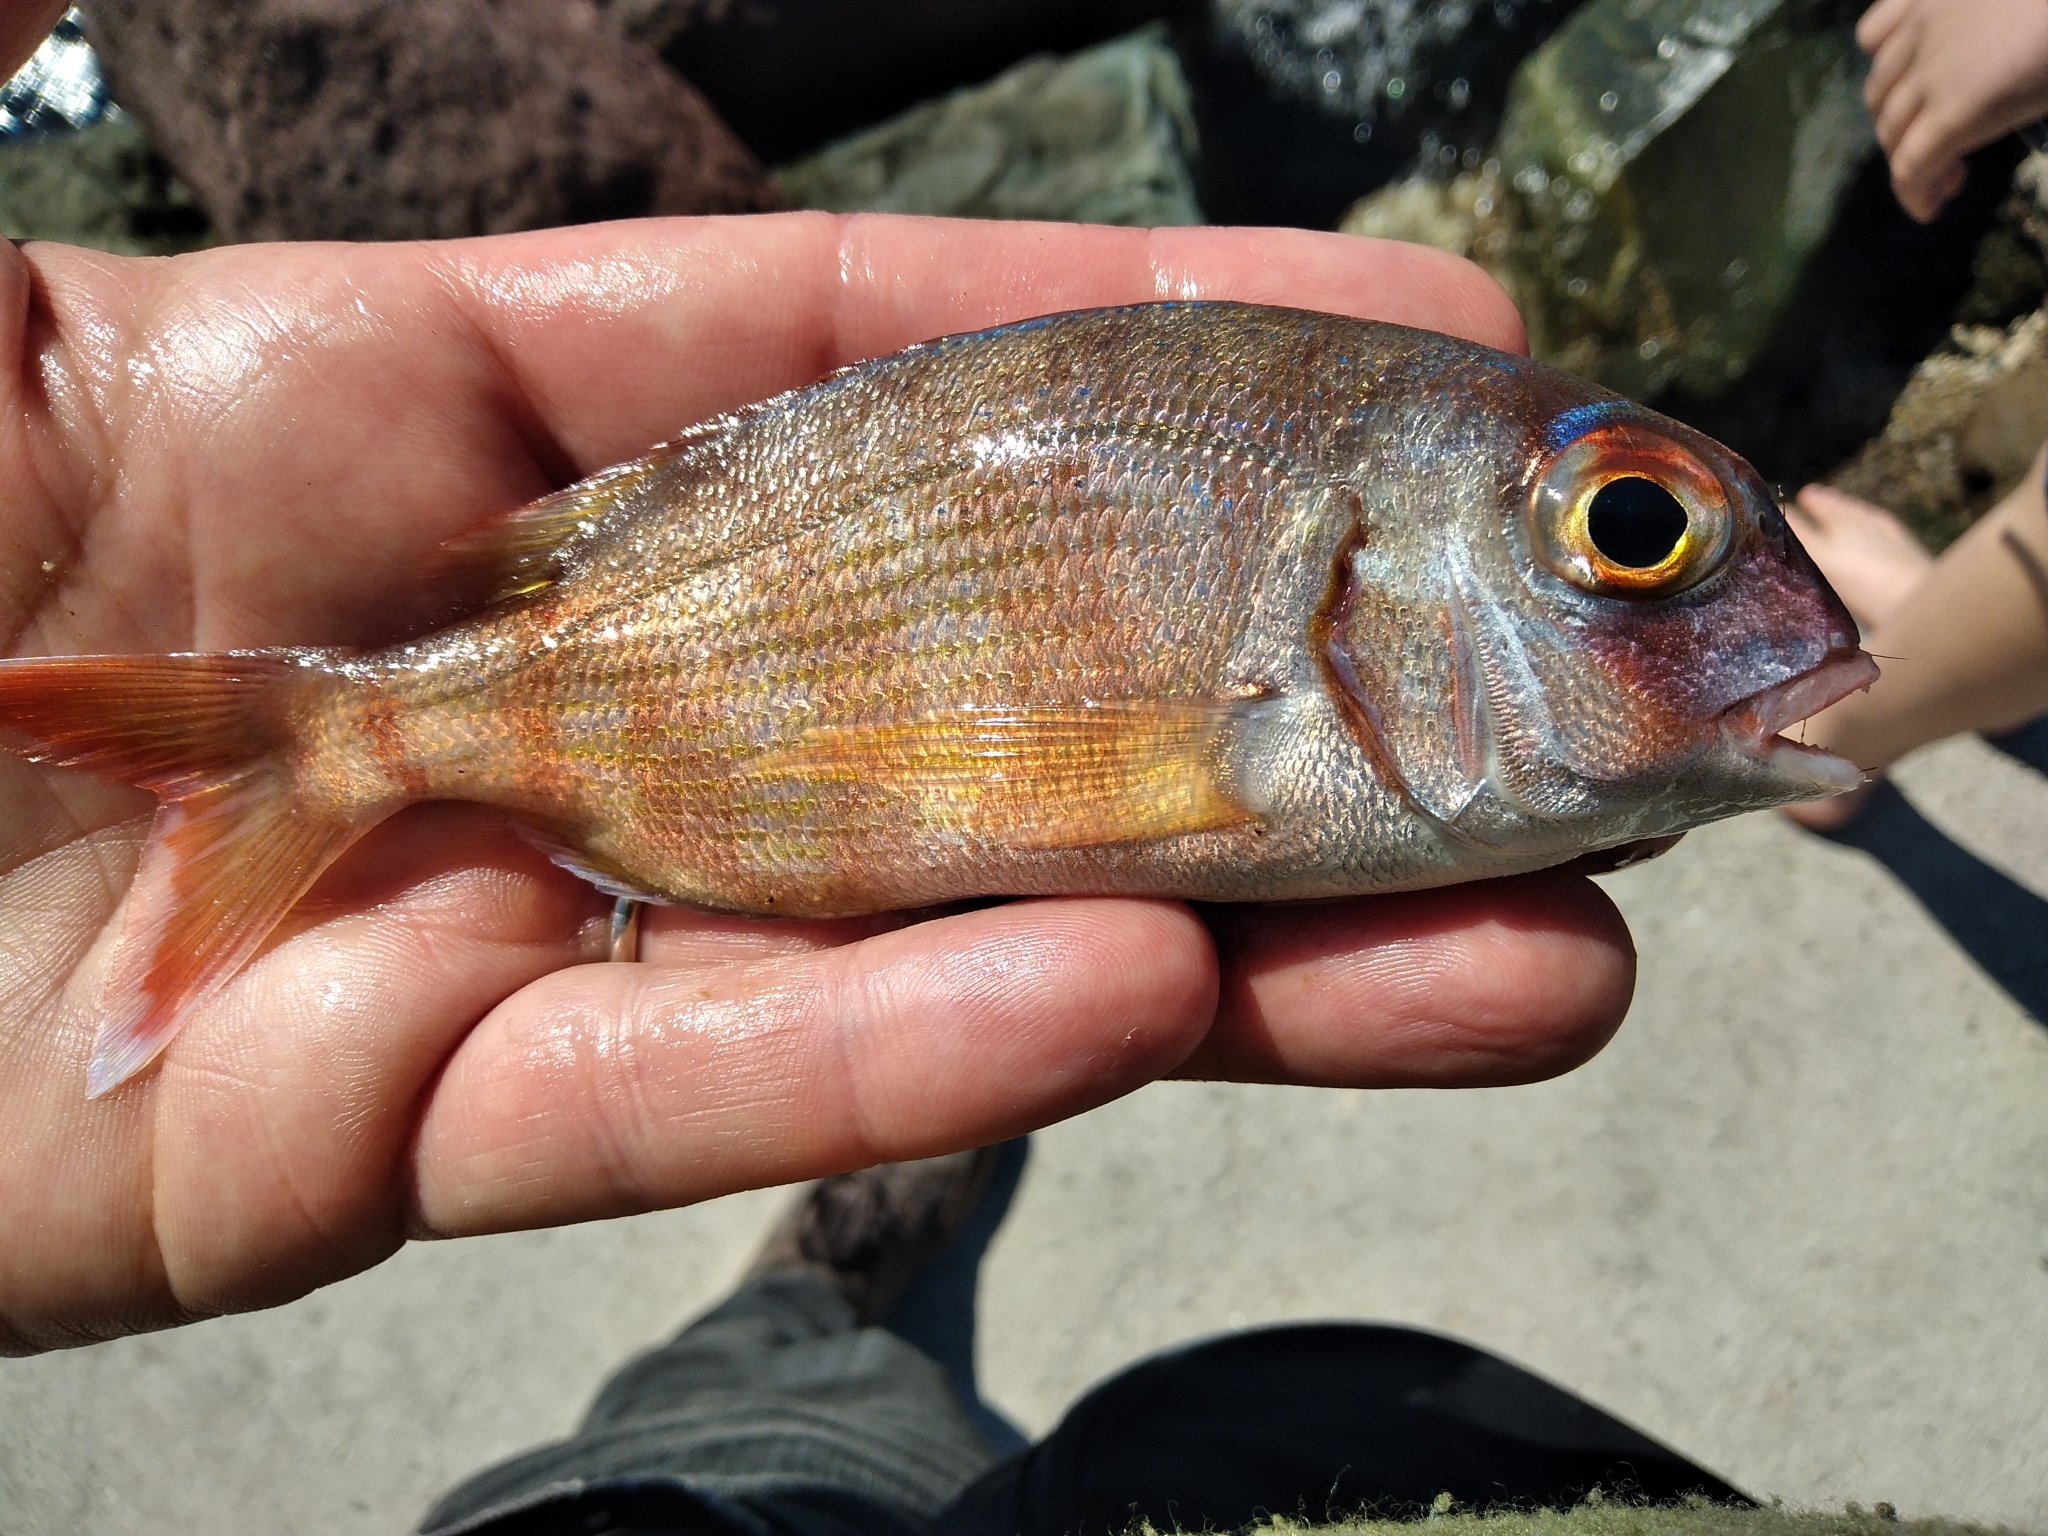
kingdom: Animalia
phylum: Chordata
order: Perciformes
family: Sparidae
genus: Pagrus
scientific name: Pagrus pagrus
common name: Red porgy
